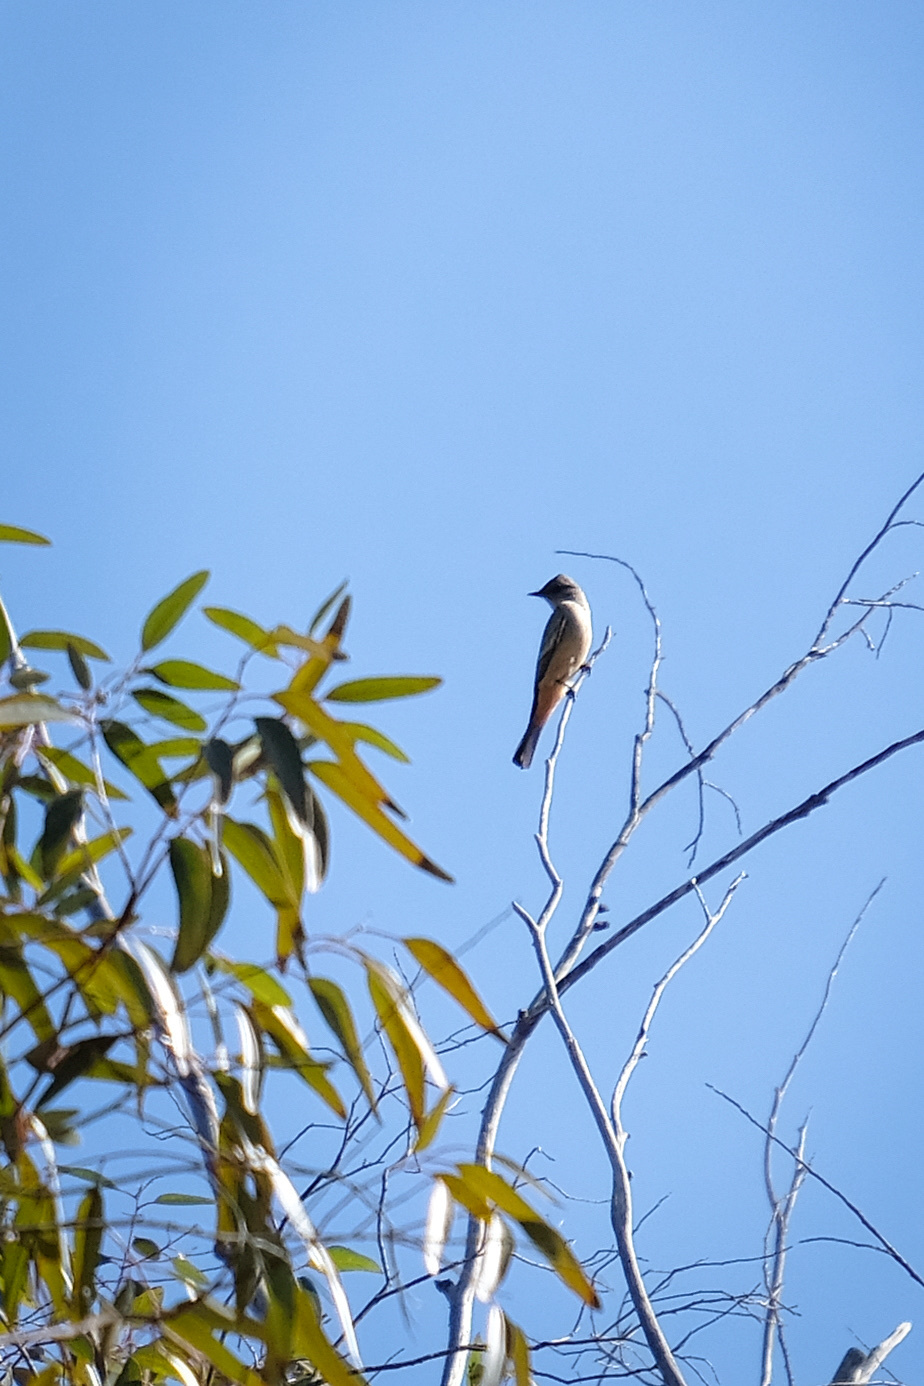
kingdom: Animalia
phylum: Chordata
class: Aves
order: Passeriformes
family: Tyrannidae
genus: Sayornis
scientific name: Sayornis saya
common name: Say's phoebe
